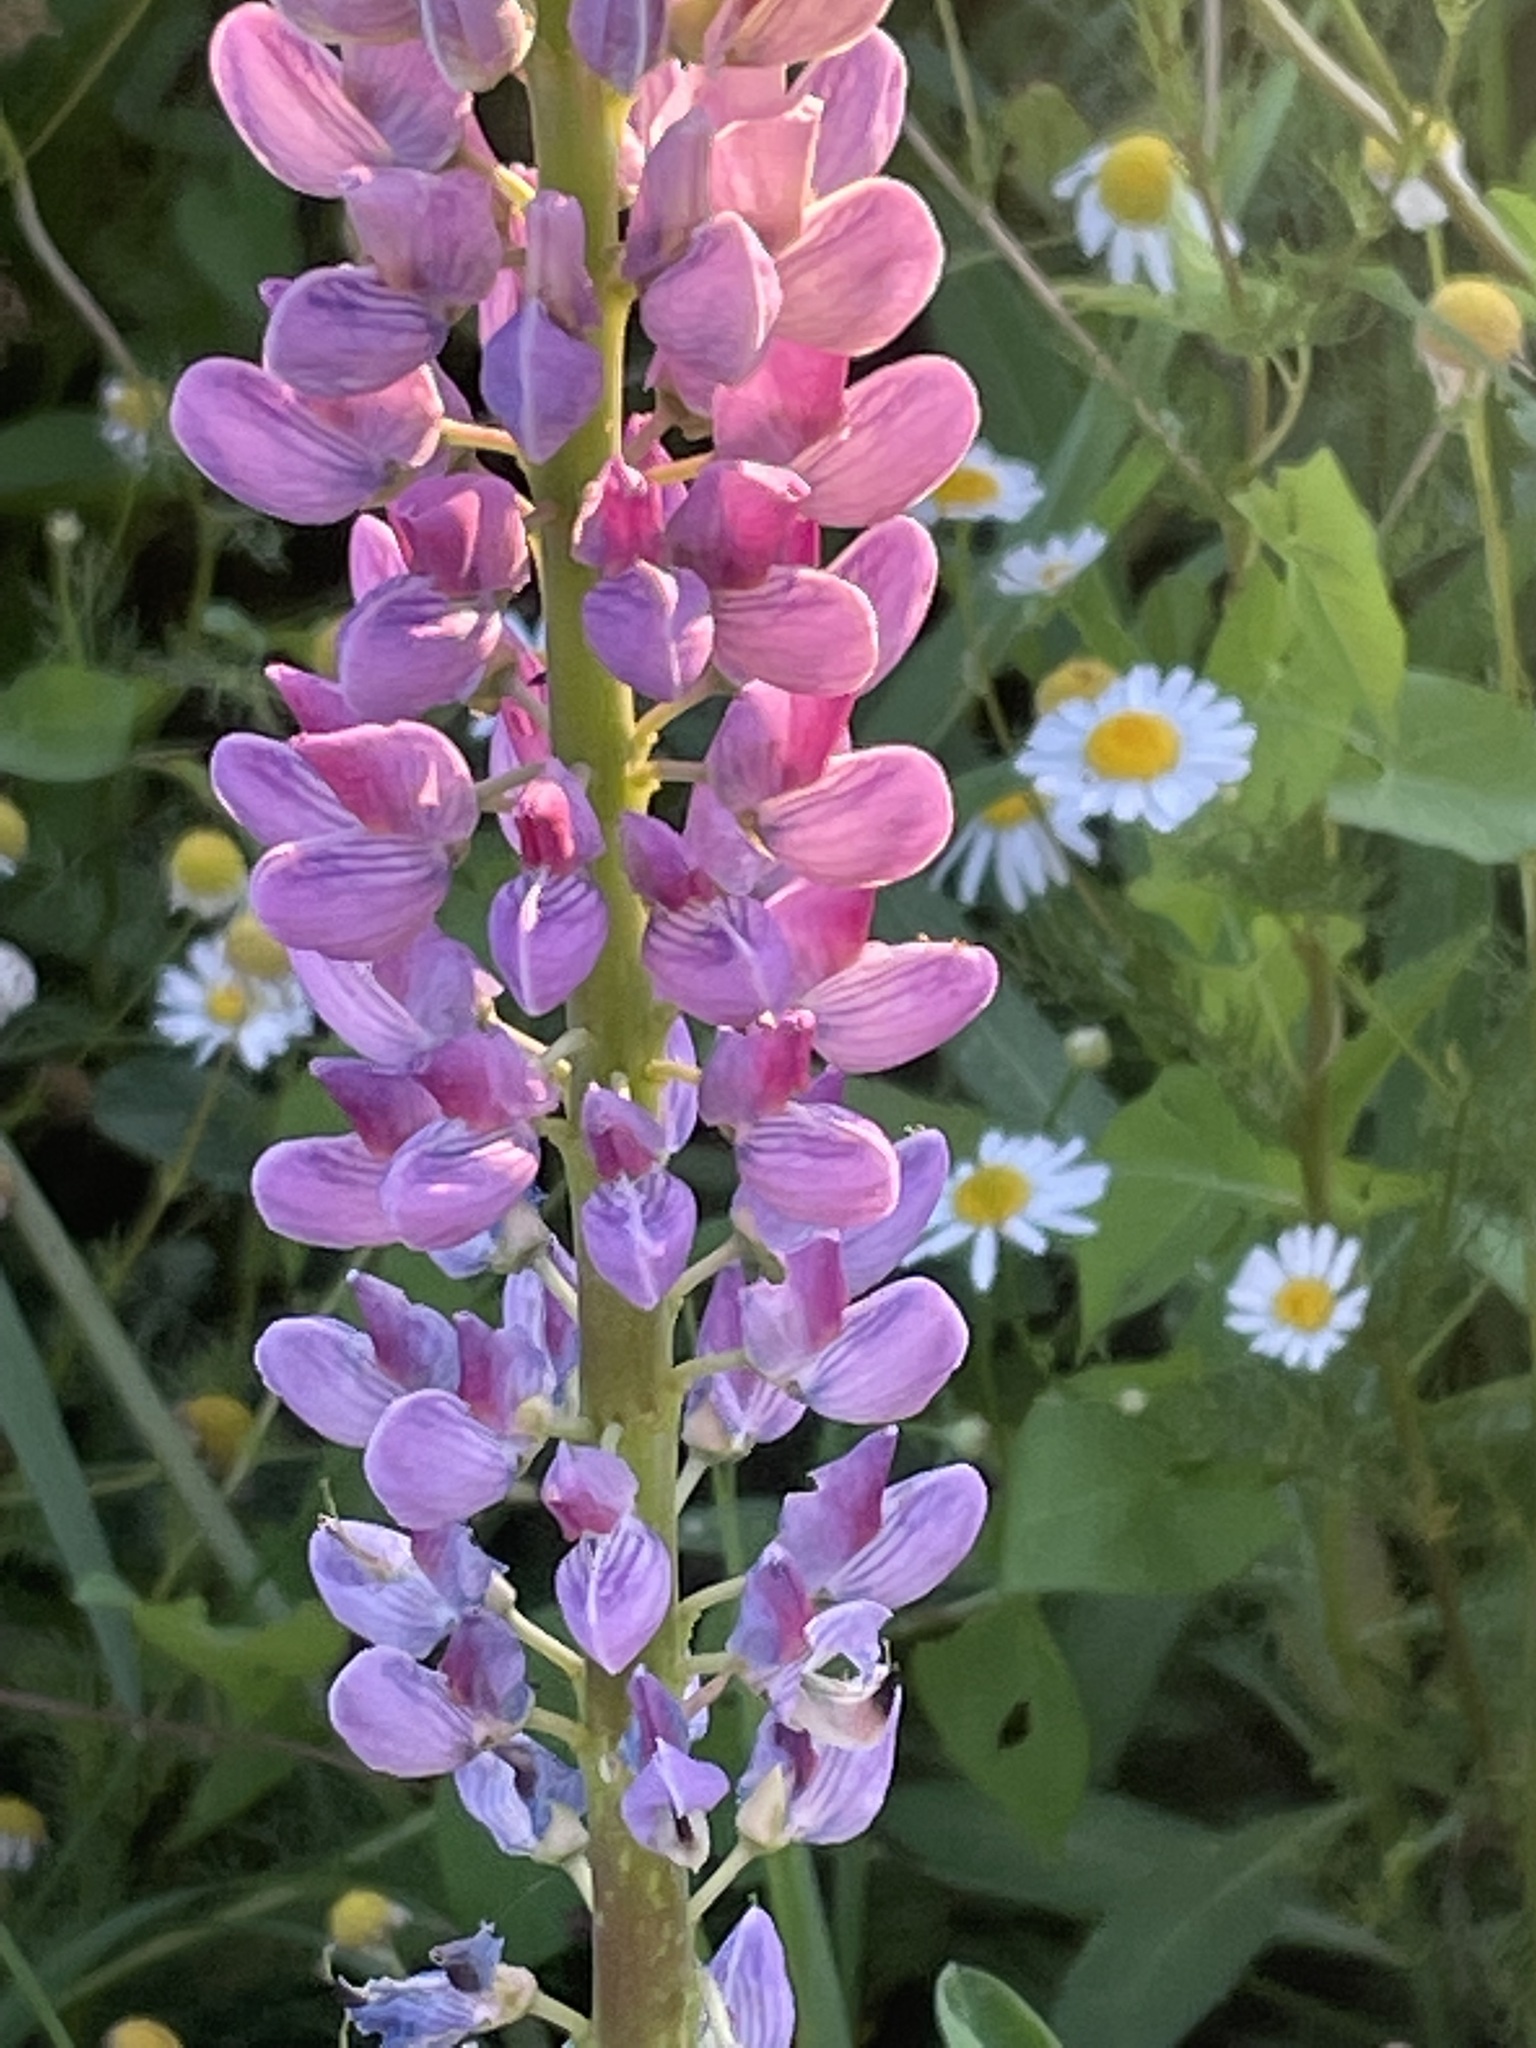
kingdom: Plantae
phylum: Tracheophyta
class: Magnoliopsida
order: Fabales
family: Fabaceae
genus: Lupinus
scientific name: Lupinus polyphyllus
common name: Garden lupin
